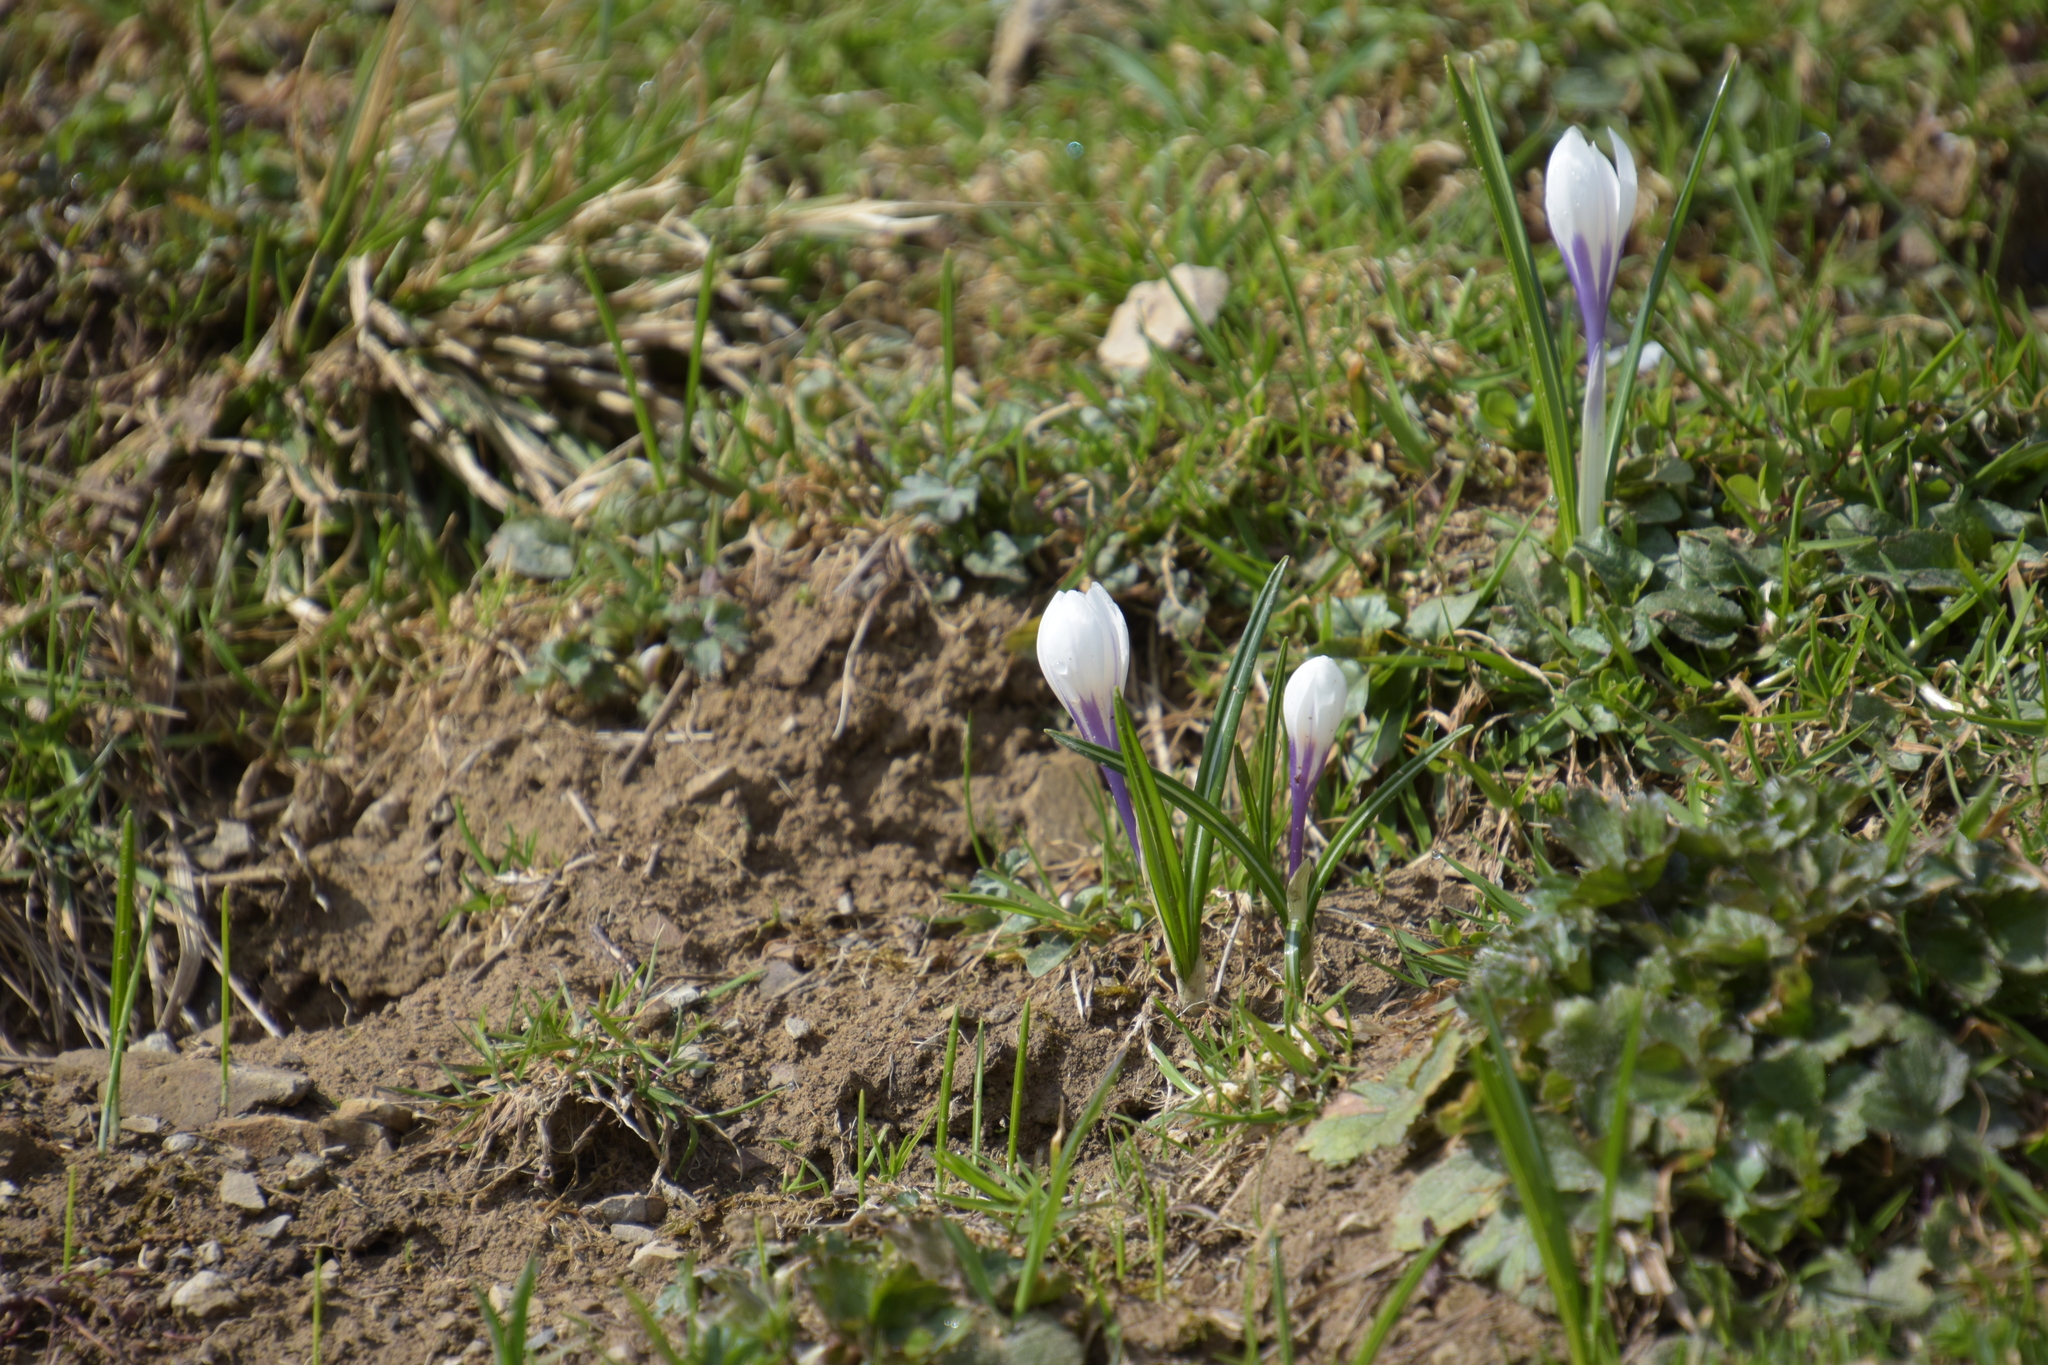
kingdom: Plantae
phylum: Tracheophyta
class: Liliopsida
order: Asparagales
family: Iridaceae
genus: Crocus
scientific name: Crocus vernus
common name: Spring crocus
